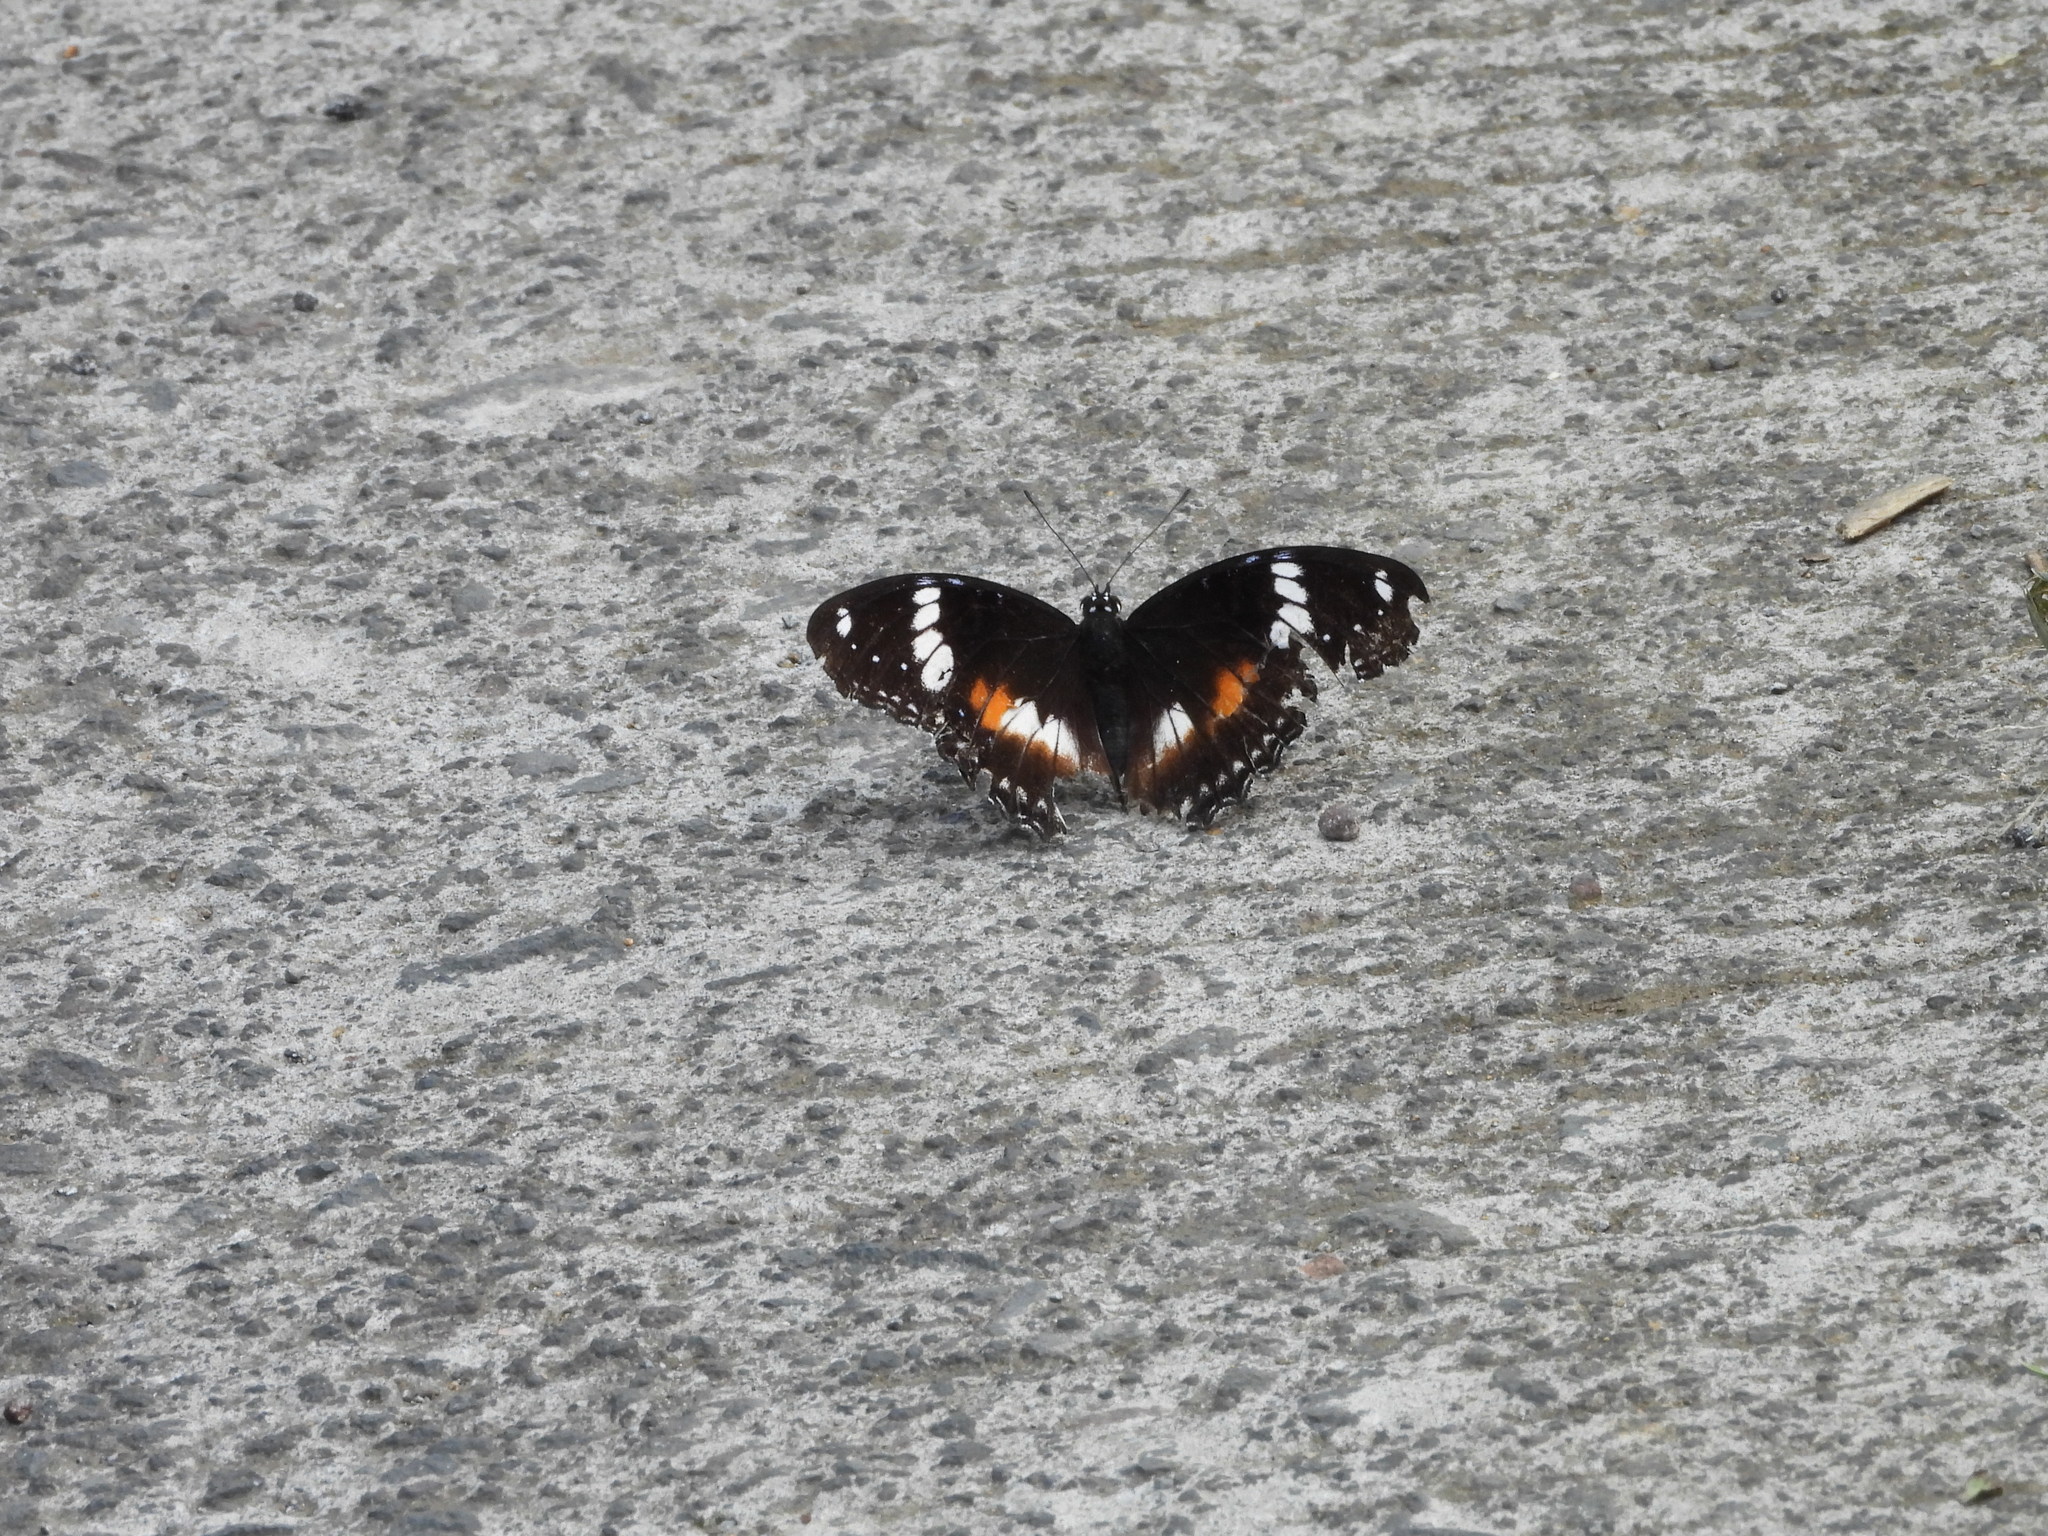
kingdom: Animalia
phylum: Arthropoda
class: Insecta
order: Lepidoptera
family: Nymphalidae
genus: Hypolimnas
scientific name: Hypolimnas bolina
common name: Great eggfly
